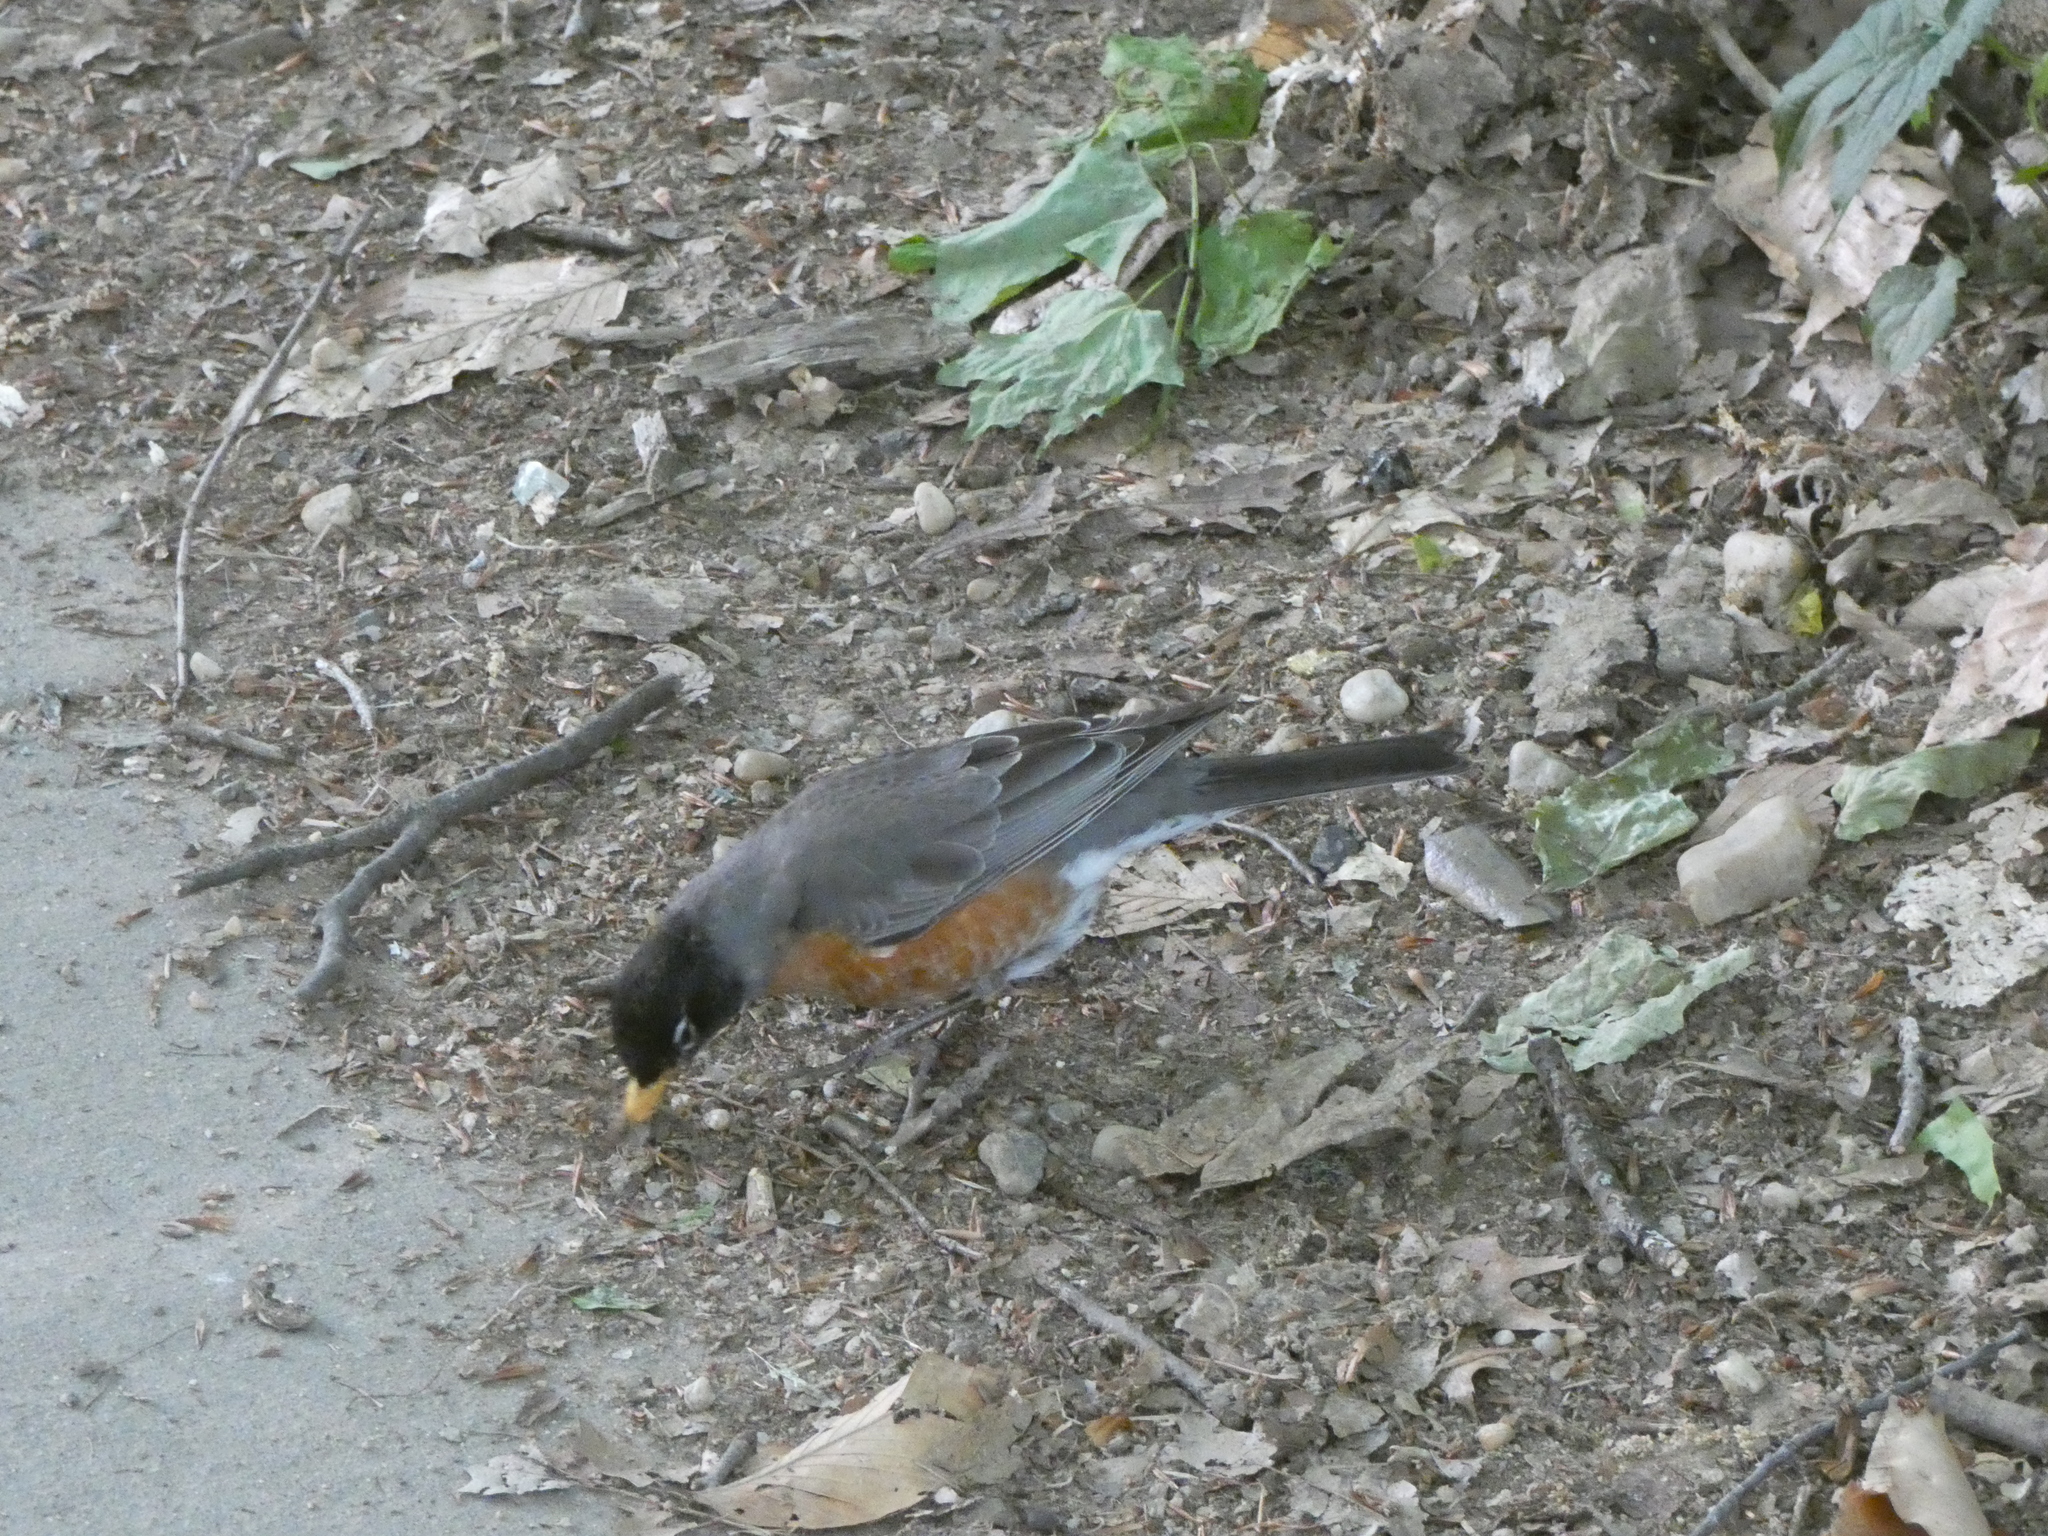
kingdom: Animalia
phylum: Chordata
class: Aves
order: Passeriformes
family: Turdidae
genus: Turdus
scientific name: Turdus migratorius
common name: American robin
